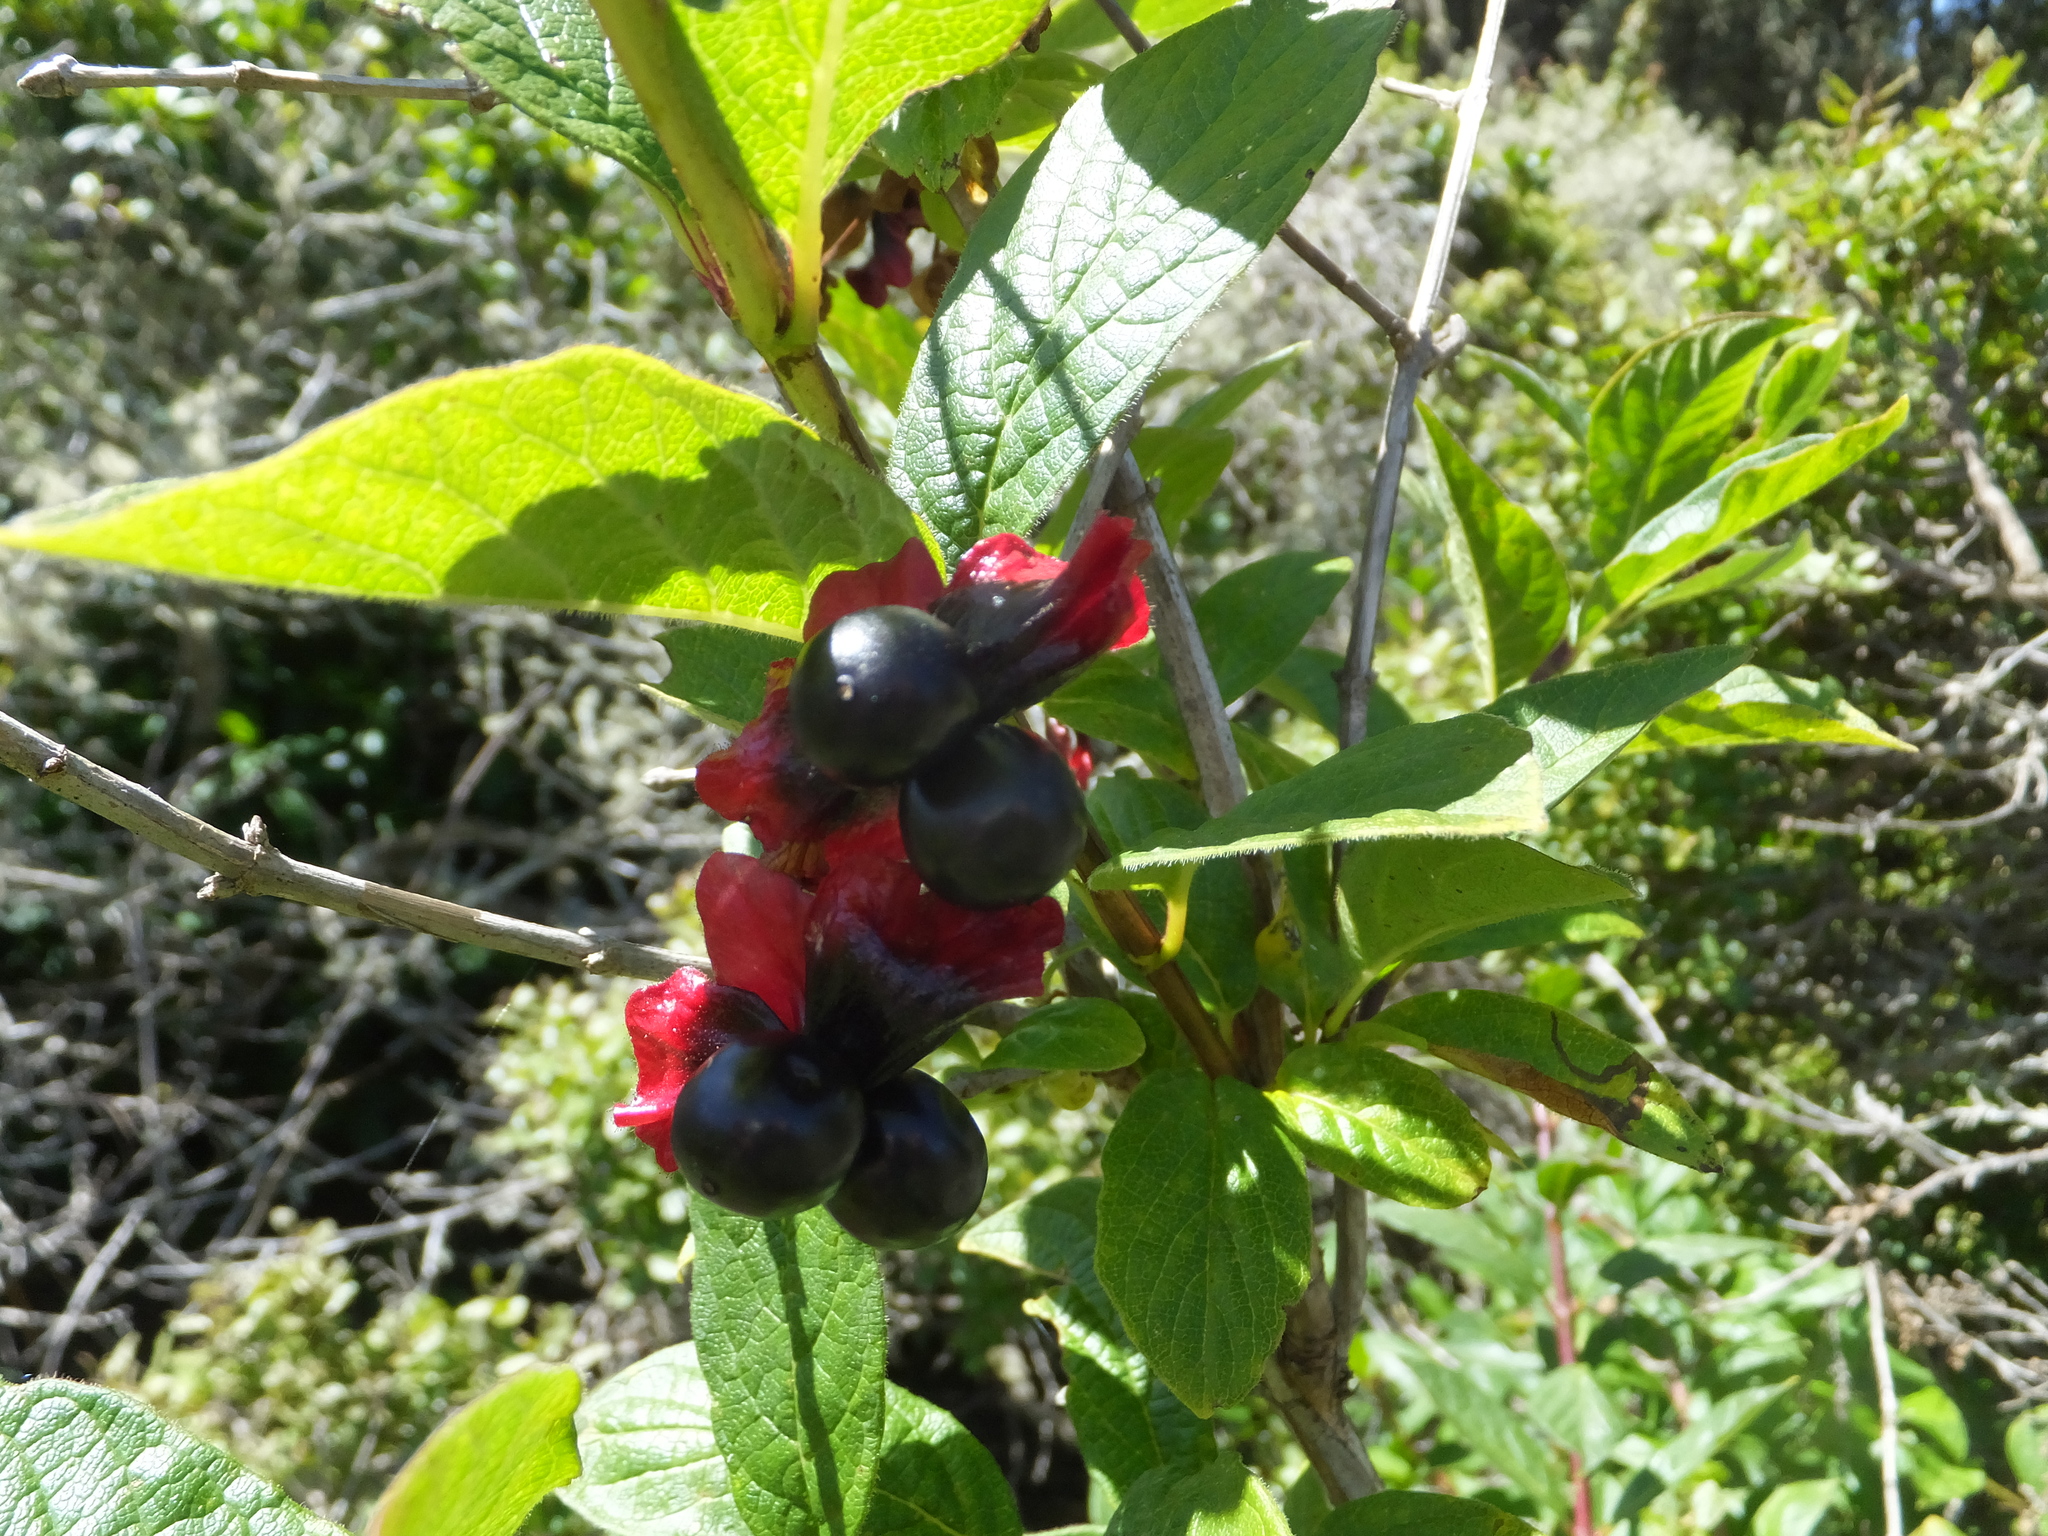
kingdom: Plantae
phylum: Tracheophyta
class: Magnoliopsida
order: Dipsacales
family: Caprifoliaceae
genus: Lonicera
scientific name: Lonicera involucrata
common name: Californian honeysuckle
